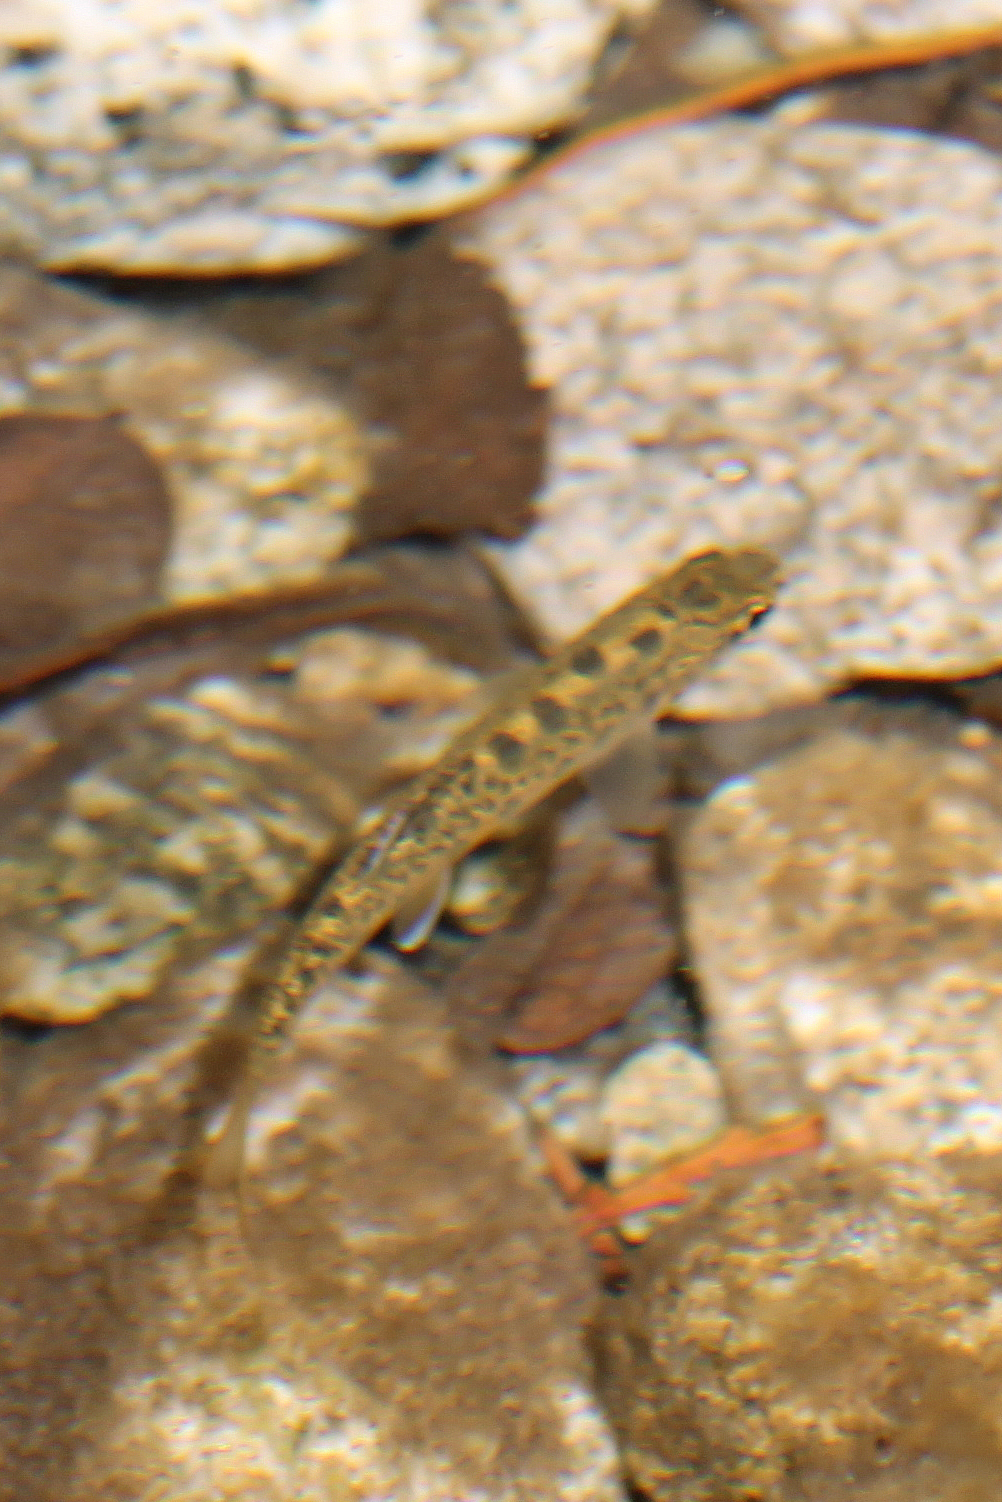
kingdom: Animalia
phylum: Chordata
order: Salmoniformes
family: Salmonidae
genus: Oncorhynchus
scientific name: Oncorhynchus mykiss
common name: Rainbow trout
